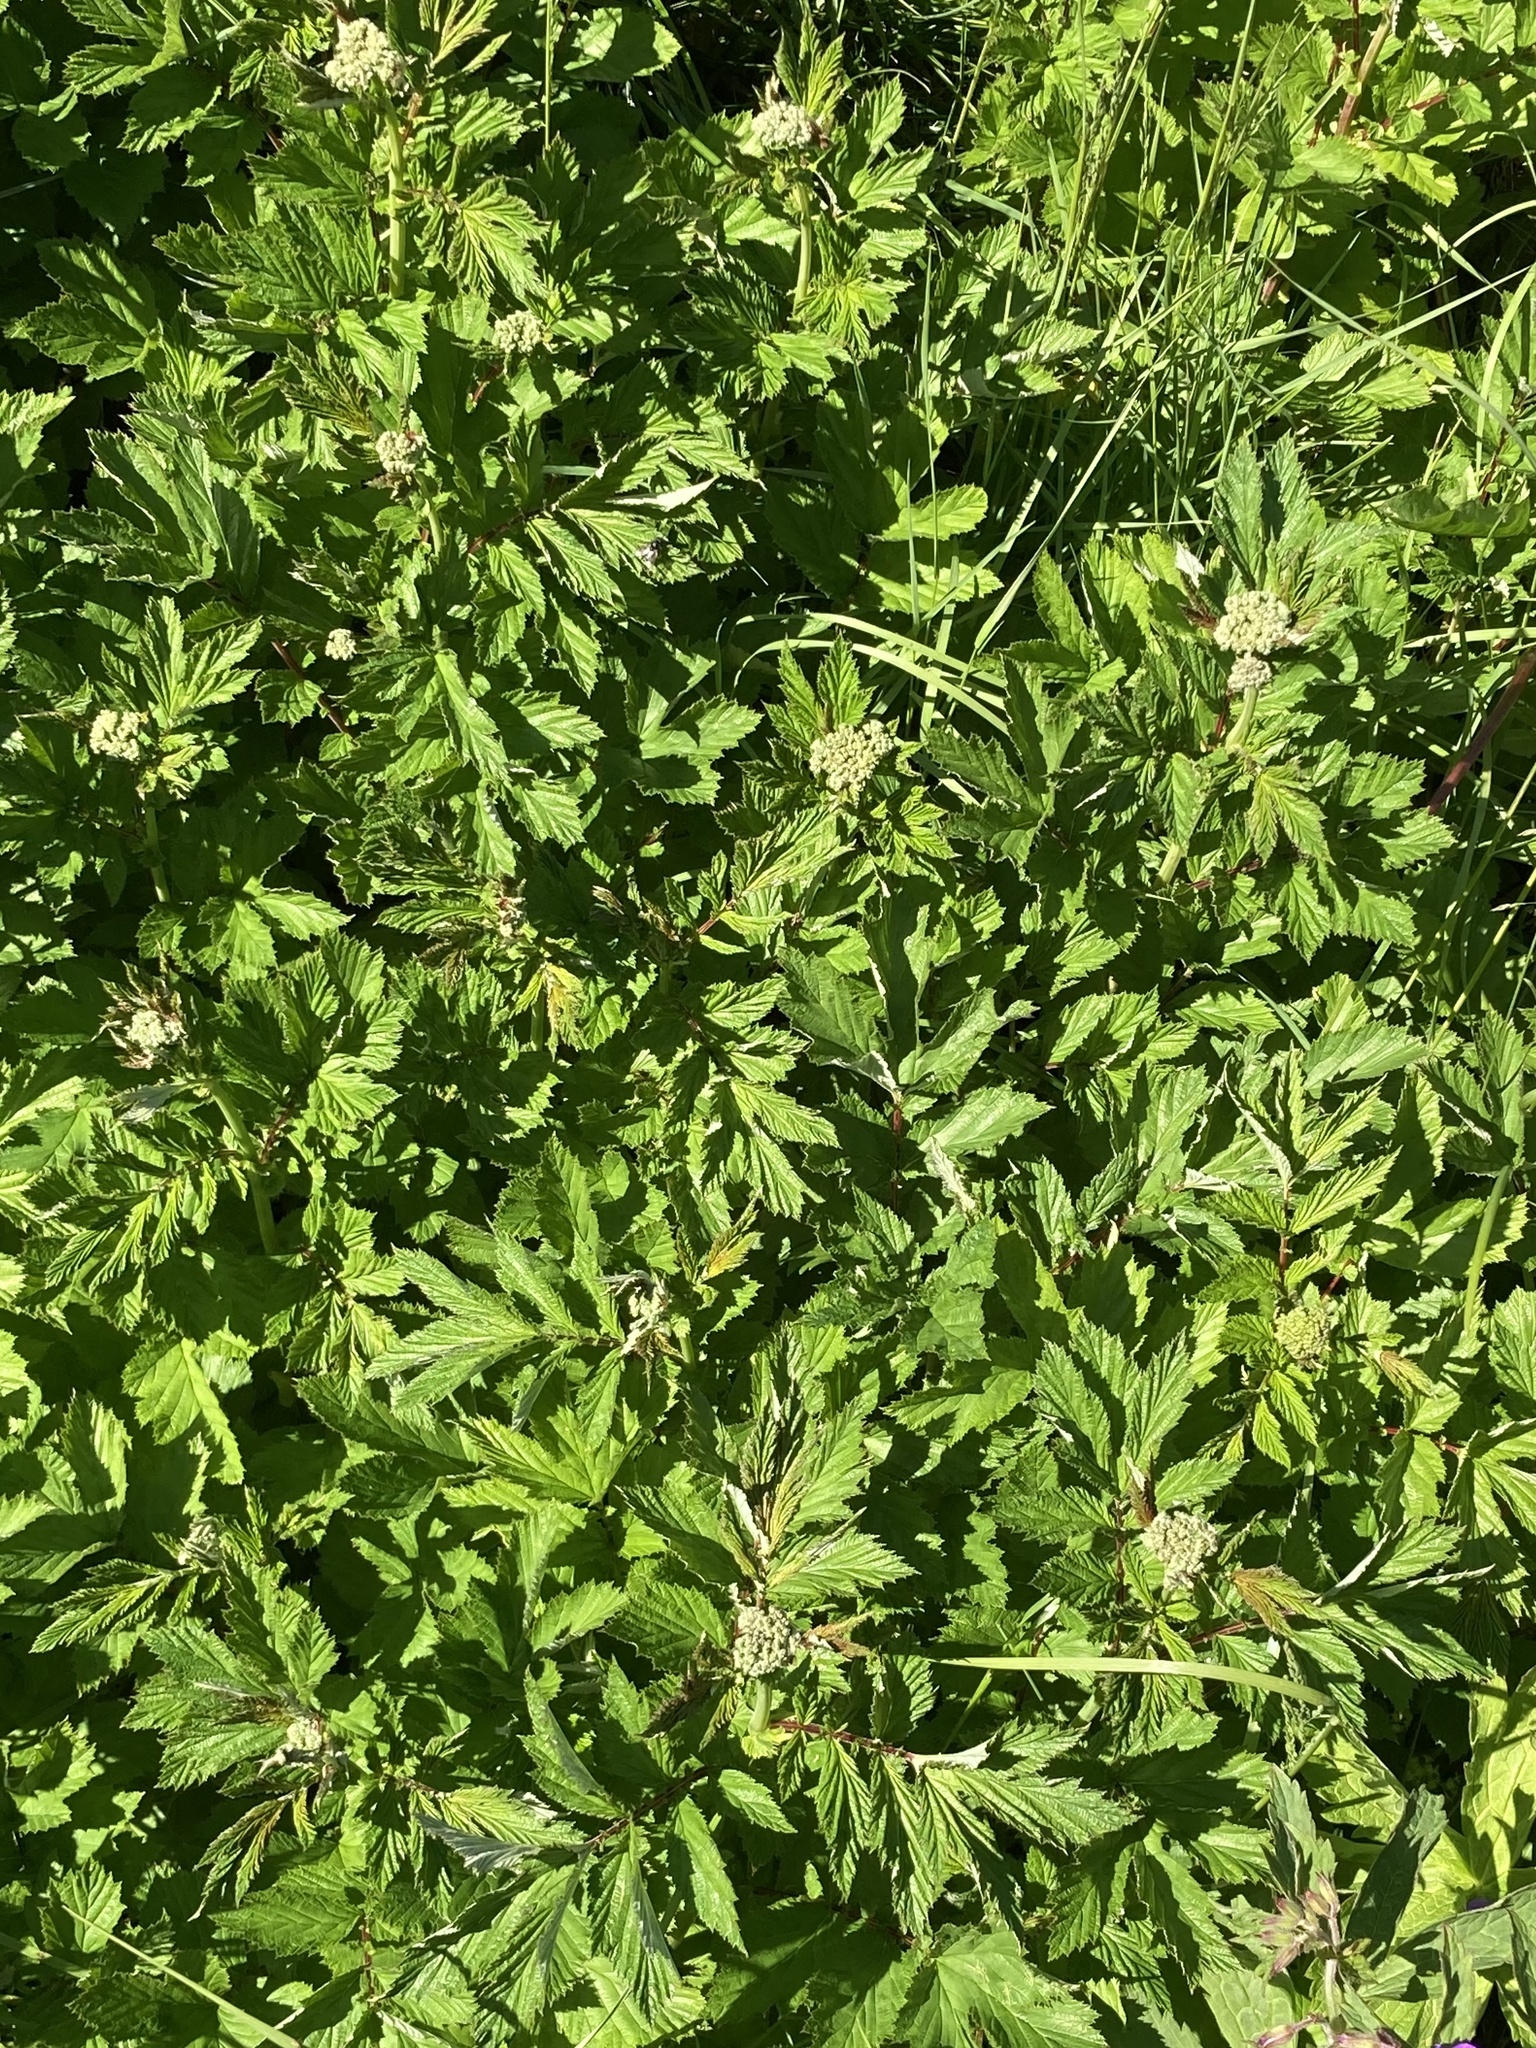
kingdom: Plantae
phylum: Tracheophyta
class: Magnoliopsida
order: Rosales
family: Rosaceae
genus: Filipendula
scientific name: Filipendula ulmaria
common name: Meadowsweet
